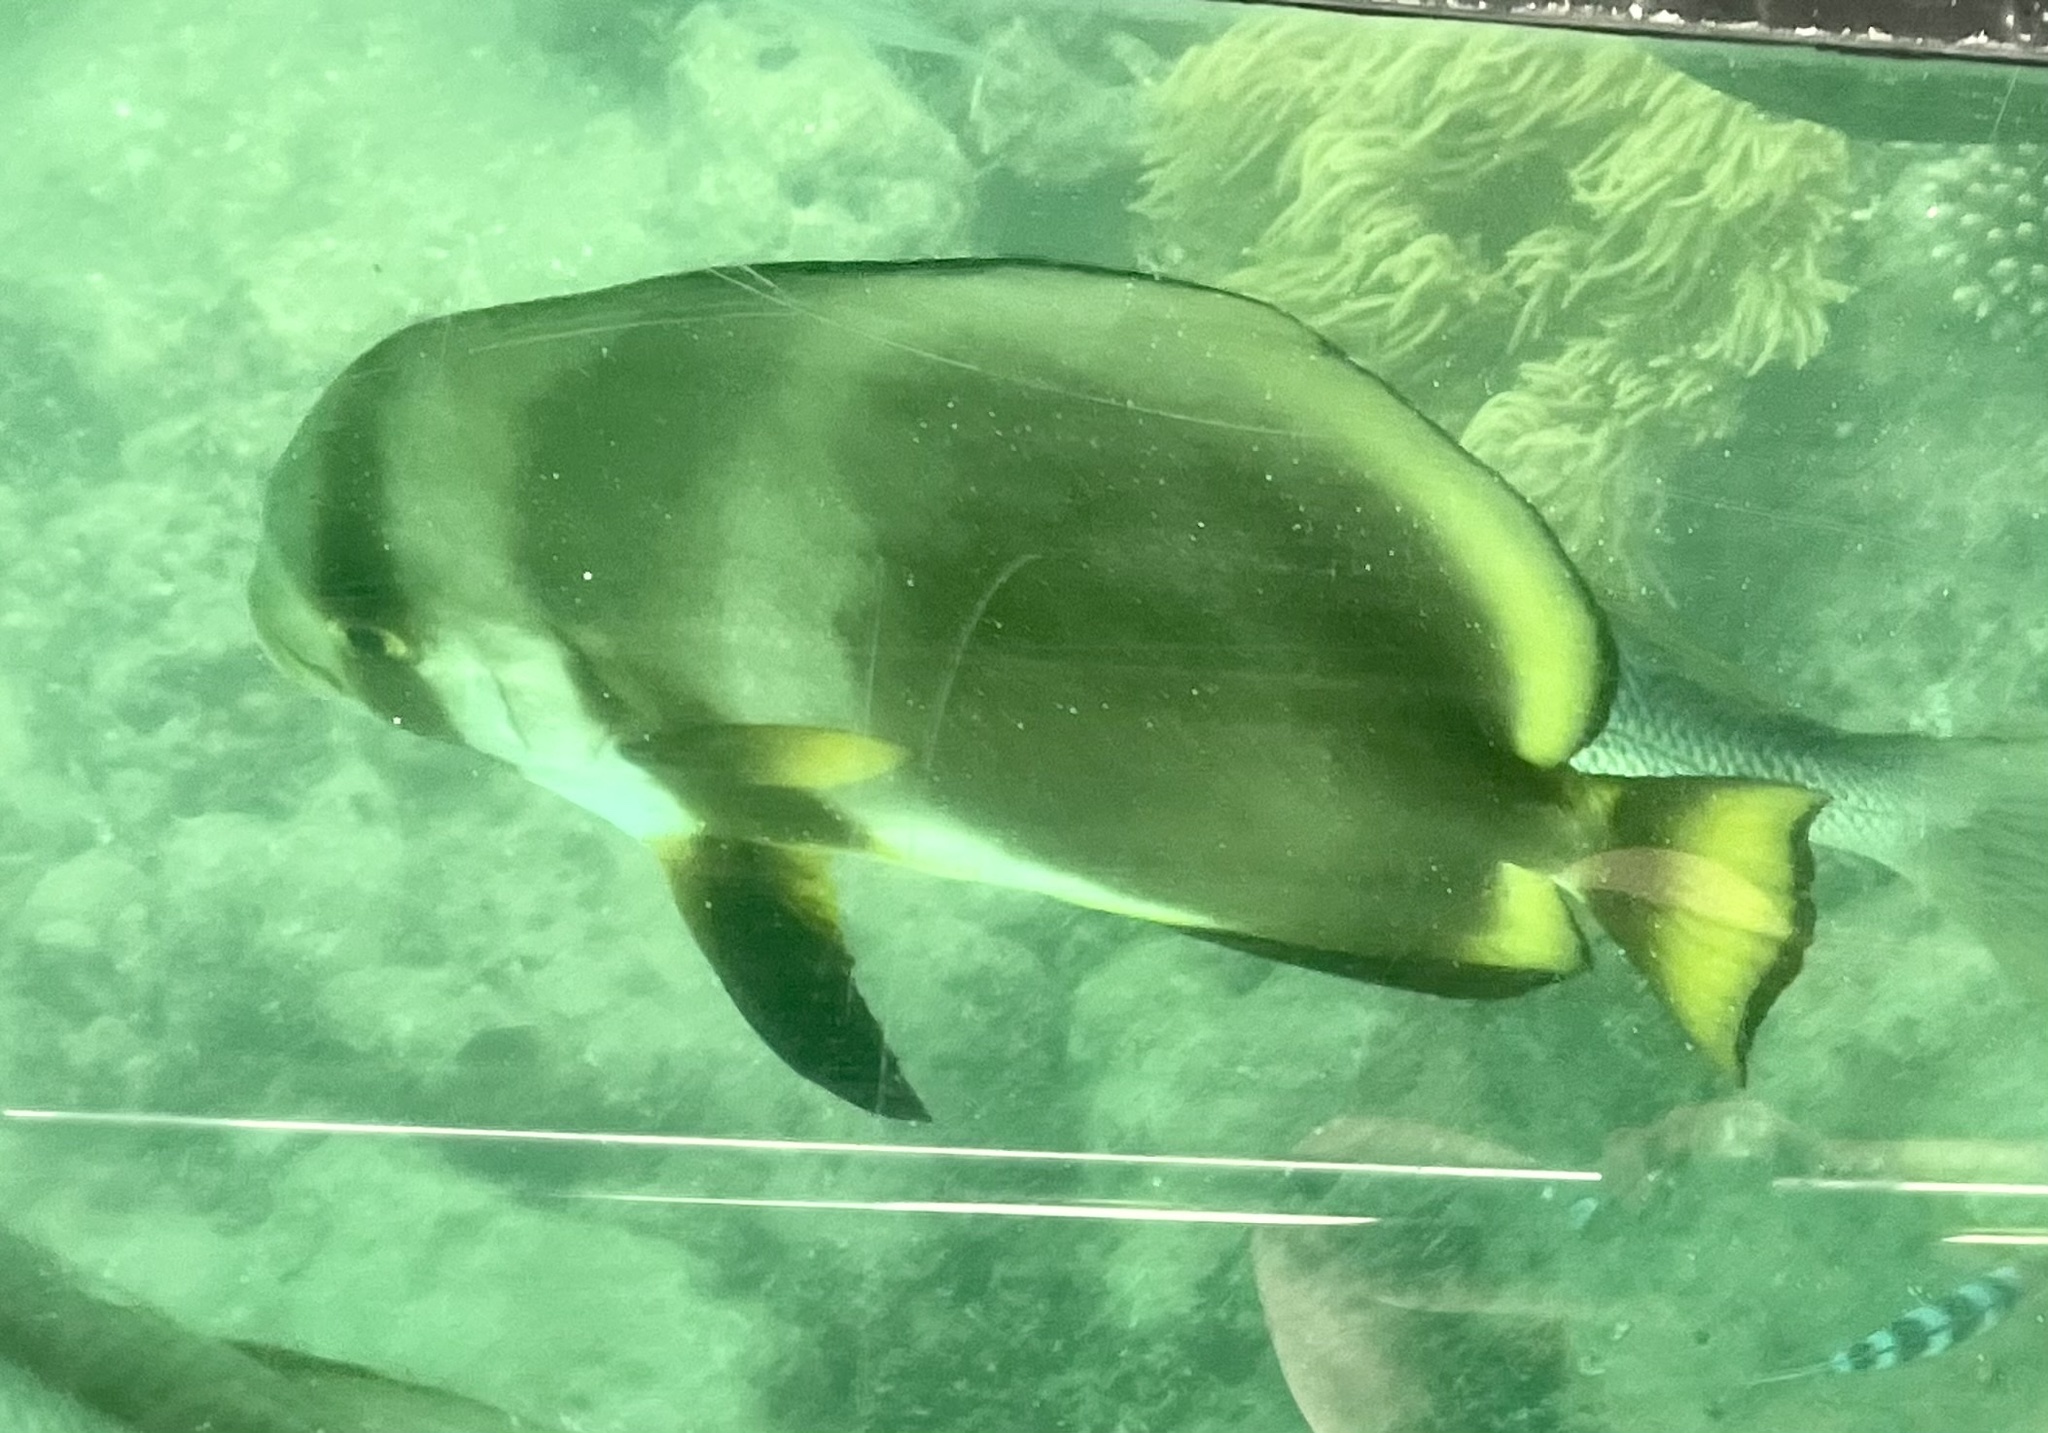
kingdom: Animalia
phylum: Chordata
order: Perciformes
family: Ephippidae
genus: Platax
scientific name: Platax teira
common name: Longfin baitfish
